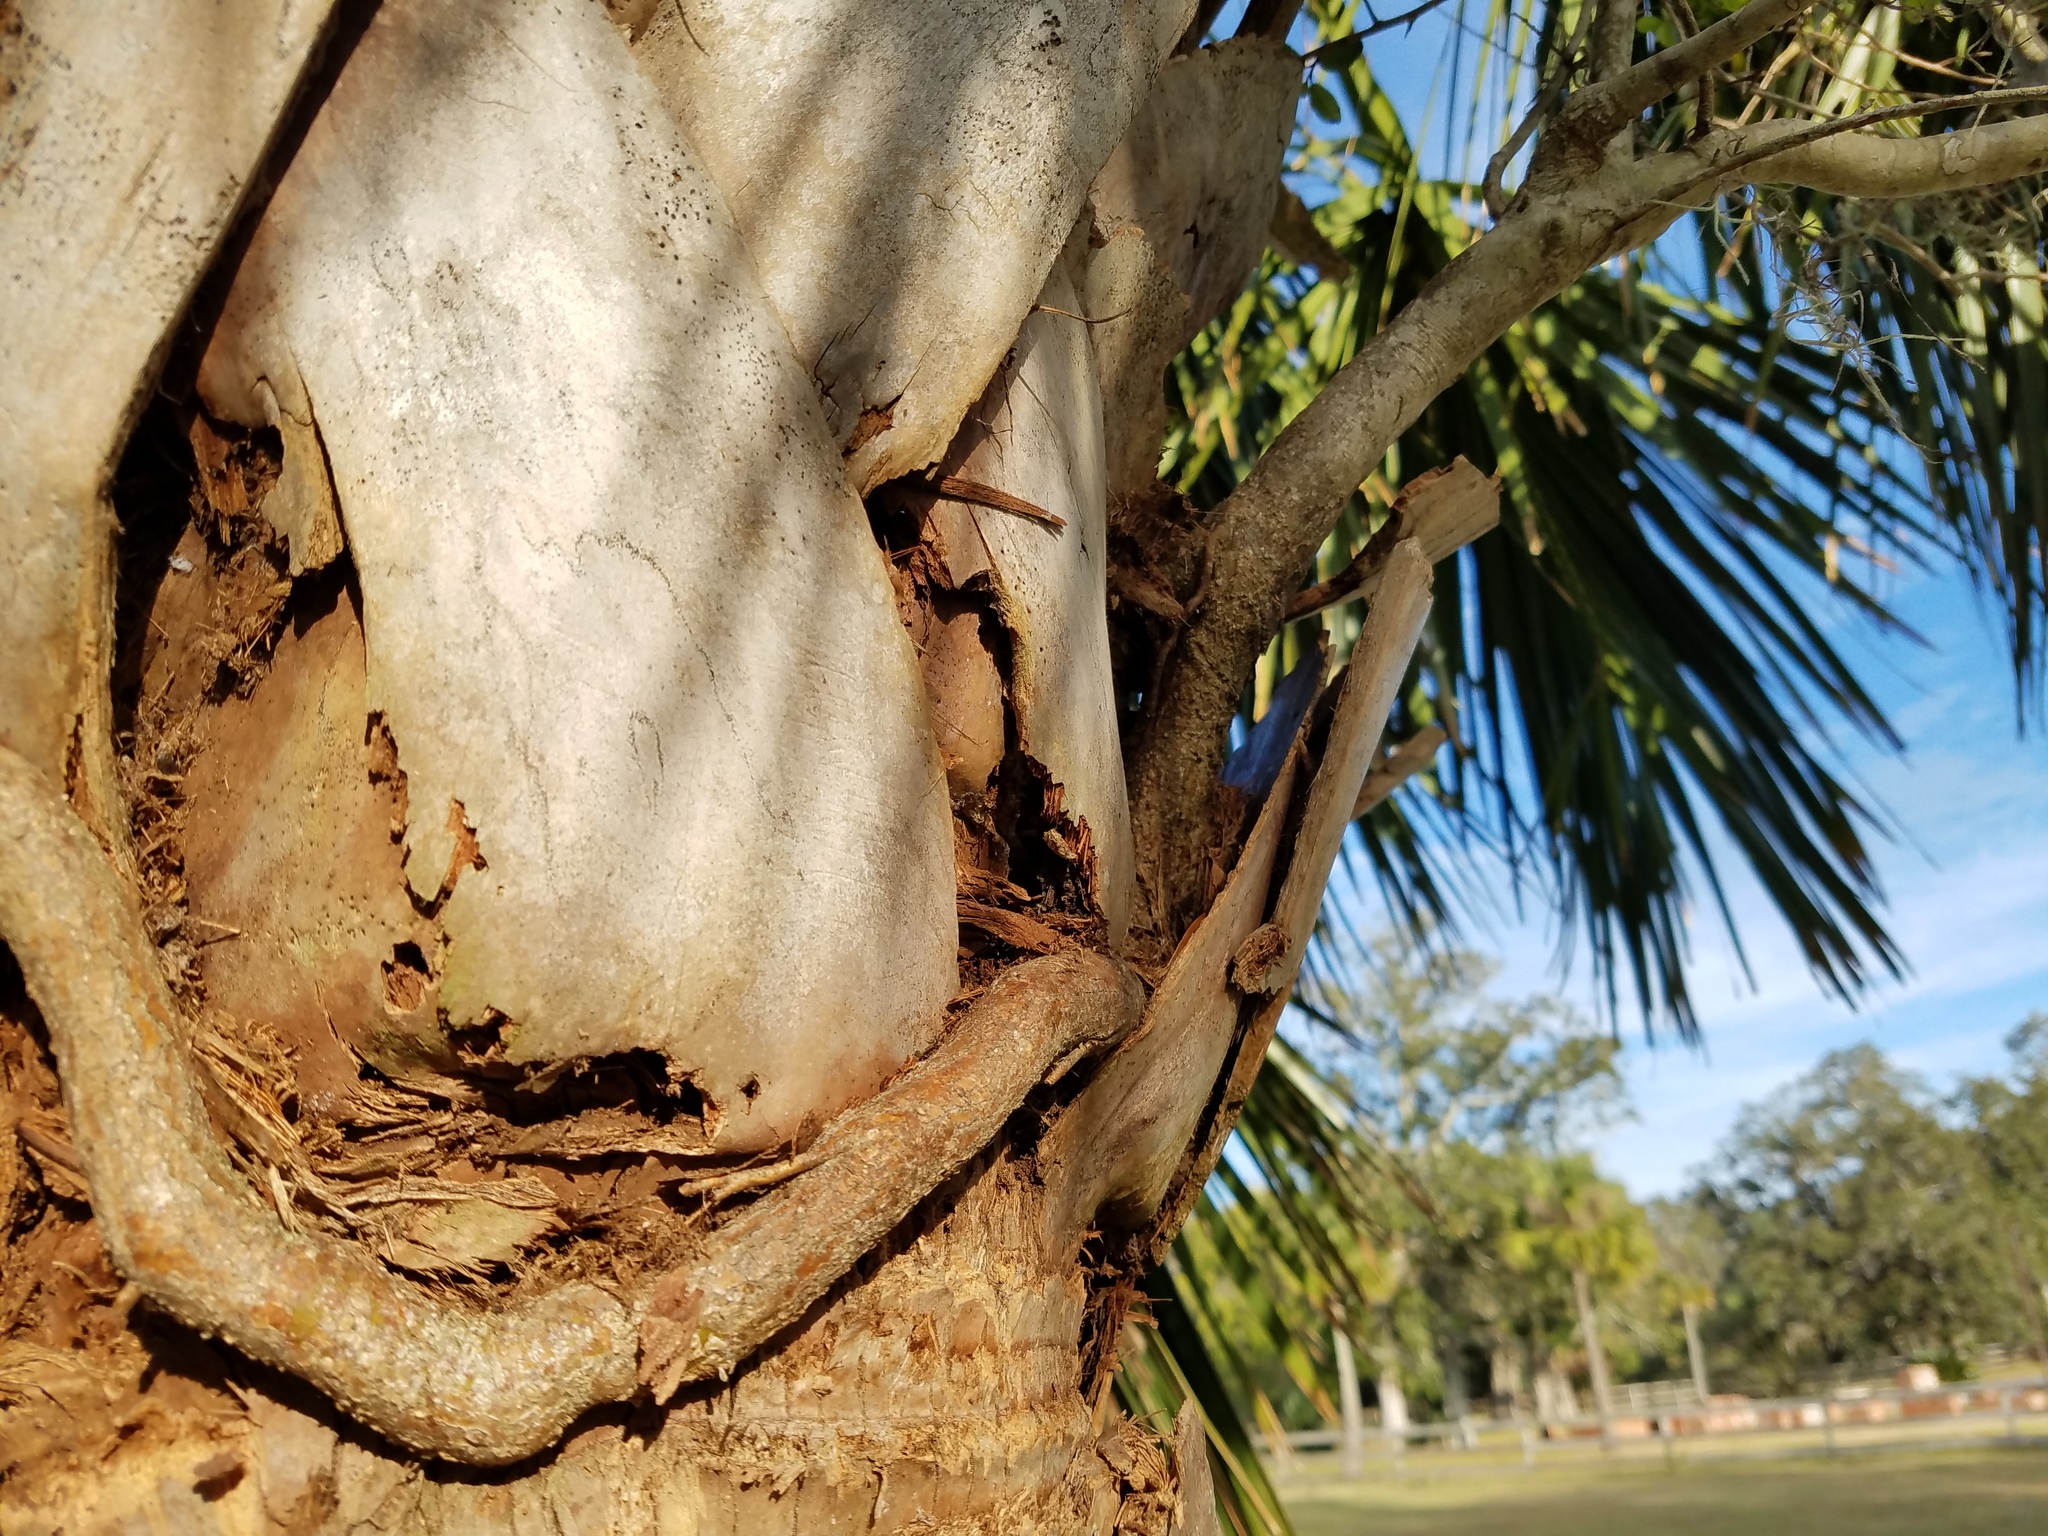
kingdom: Plantae
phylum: Tracheophyta
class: Magnoliopsida
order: Aquifoliales
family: Aquifoliaceae
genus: Ilex
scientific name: Ilex vomitoria
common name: Yaupon holly
